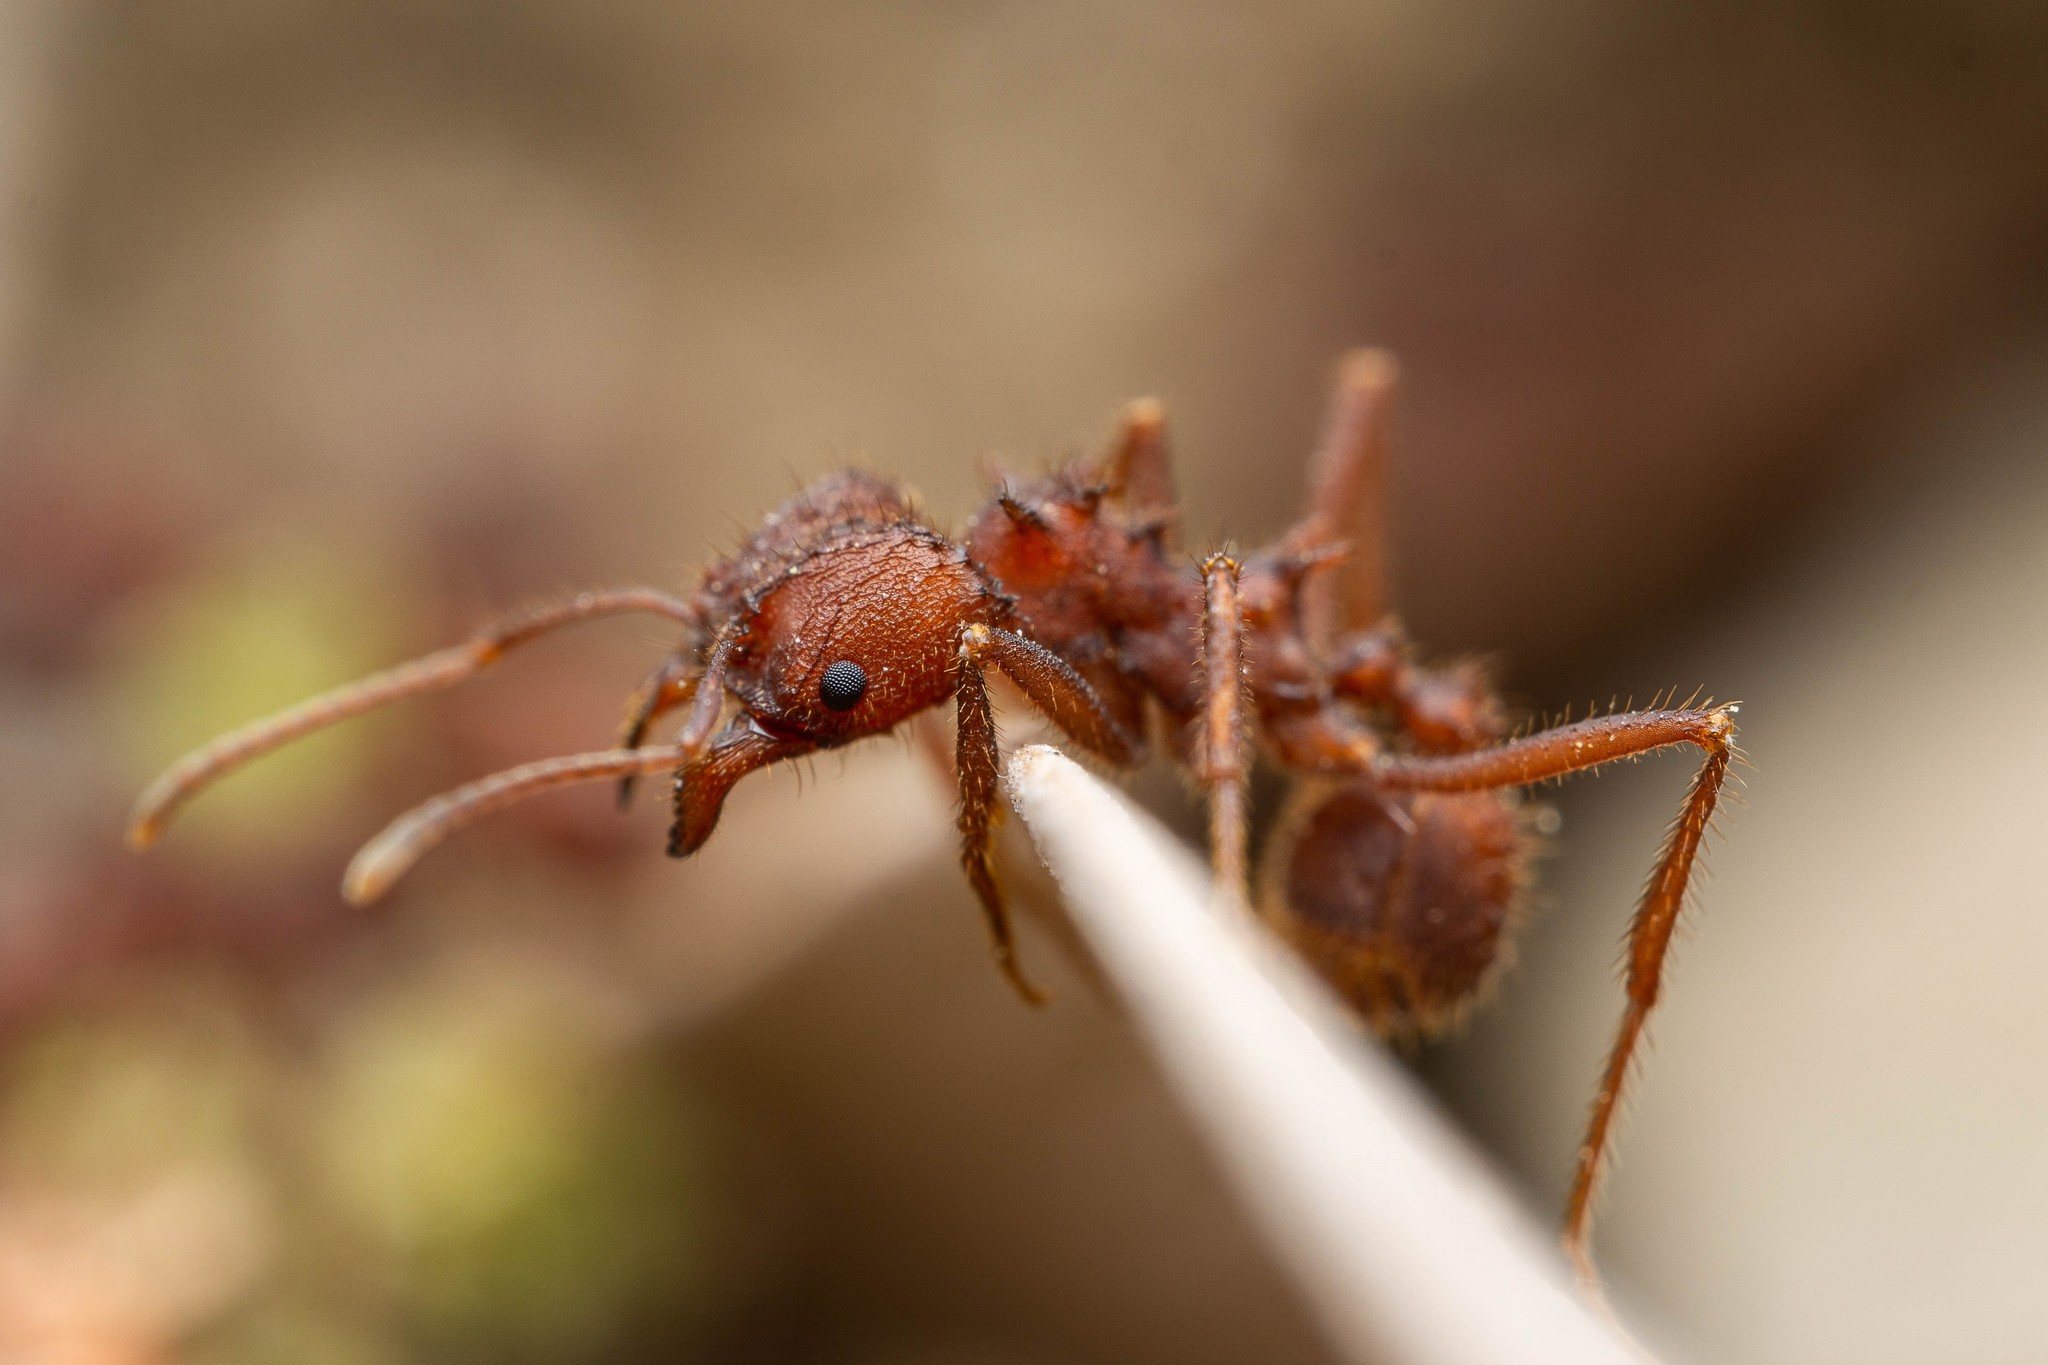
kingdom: Animalia
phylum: Arthropoda
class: Insecta
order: Hymenoptera
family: Formicidae
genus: Acromyrmex
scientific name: Acromyrmex versicolor
